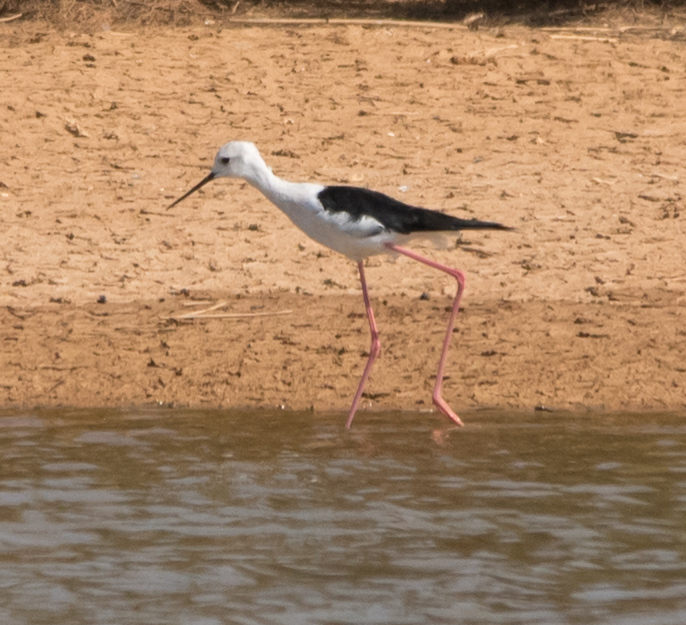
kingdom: Animalia
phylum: Chordata
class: Aves
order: Charadriiformes
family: Recurvirostridae
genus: Himantopus
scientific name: Himantopus himantopus
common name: Black-winged stilt
